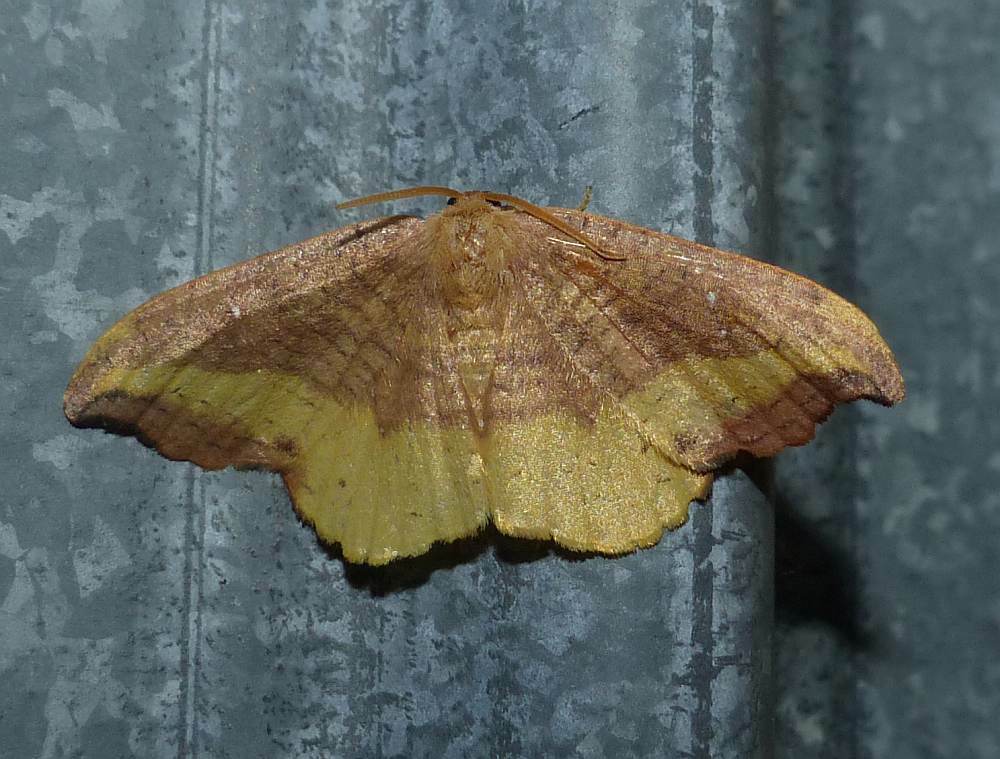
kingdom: Animalia
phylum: Arthropoda
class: Insecta
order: Lepidoptera
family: Drepanidae
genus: Oreta
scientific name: Oreta rosea
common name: Rose hooktip
